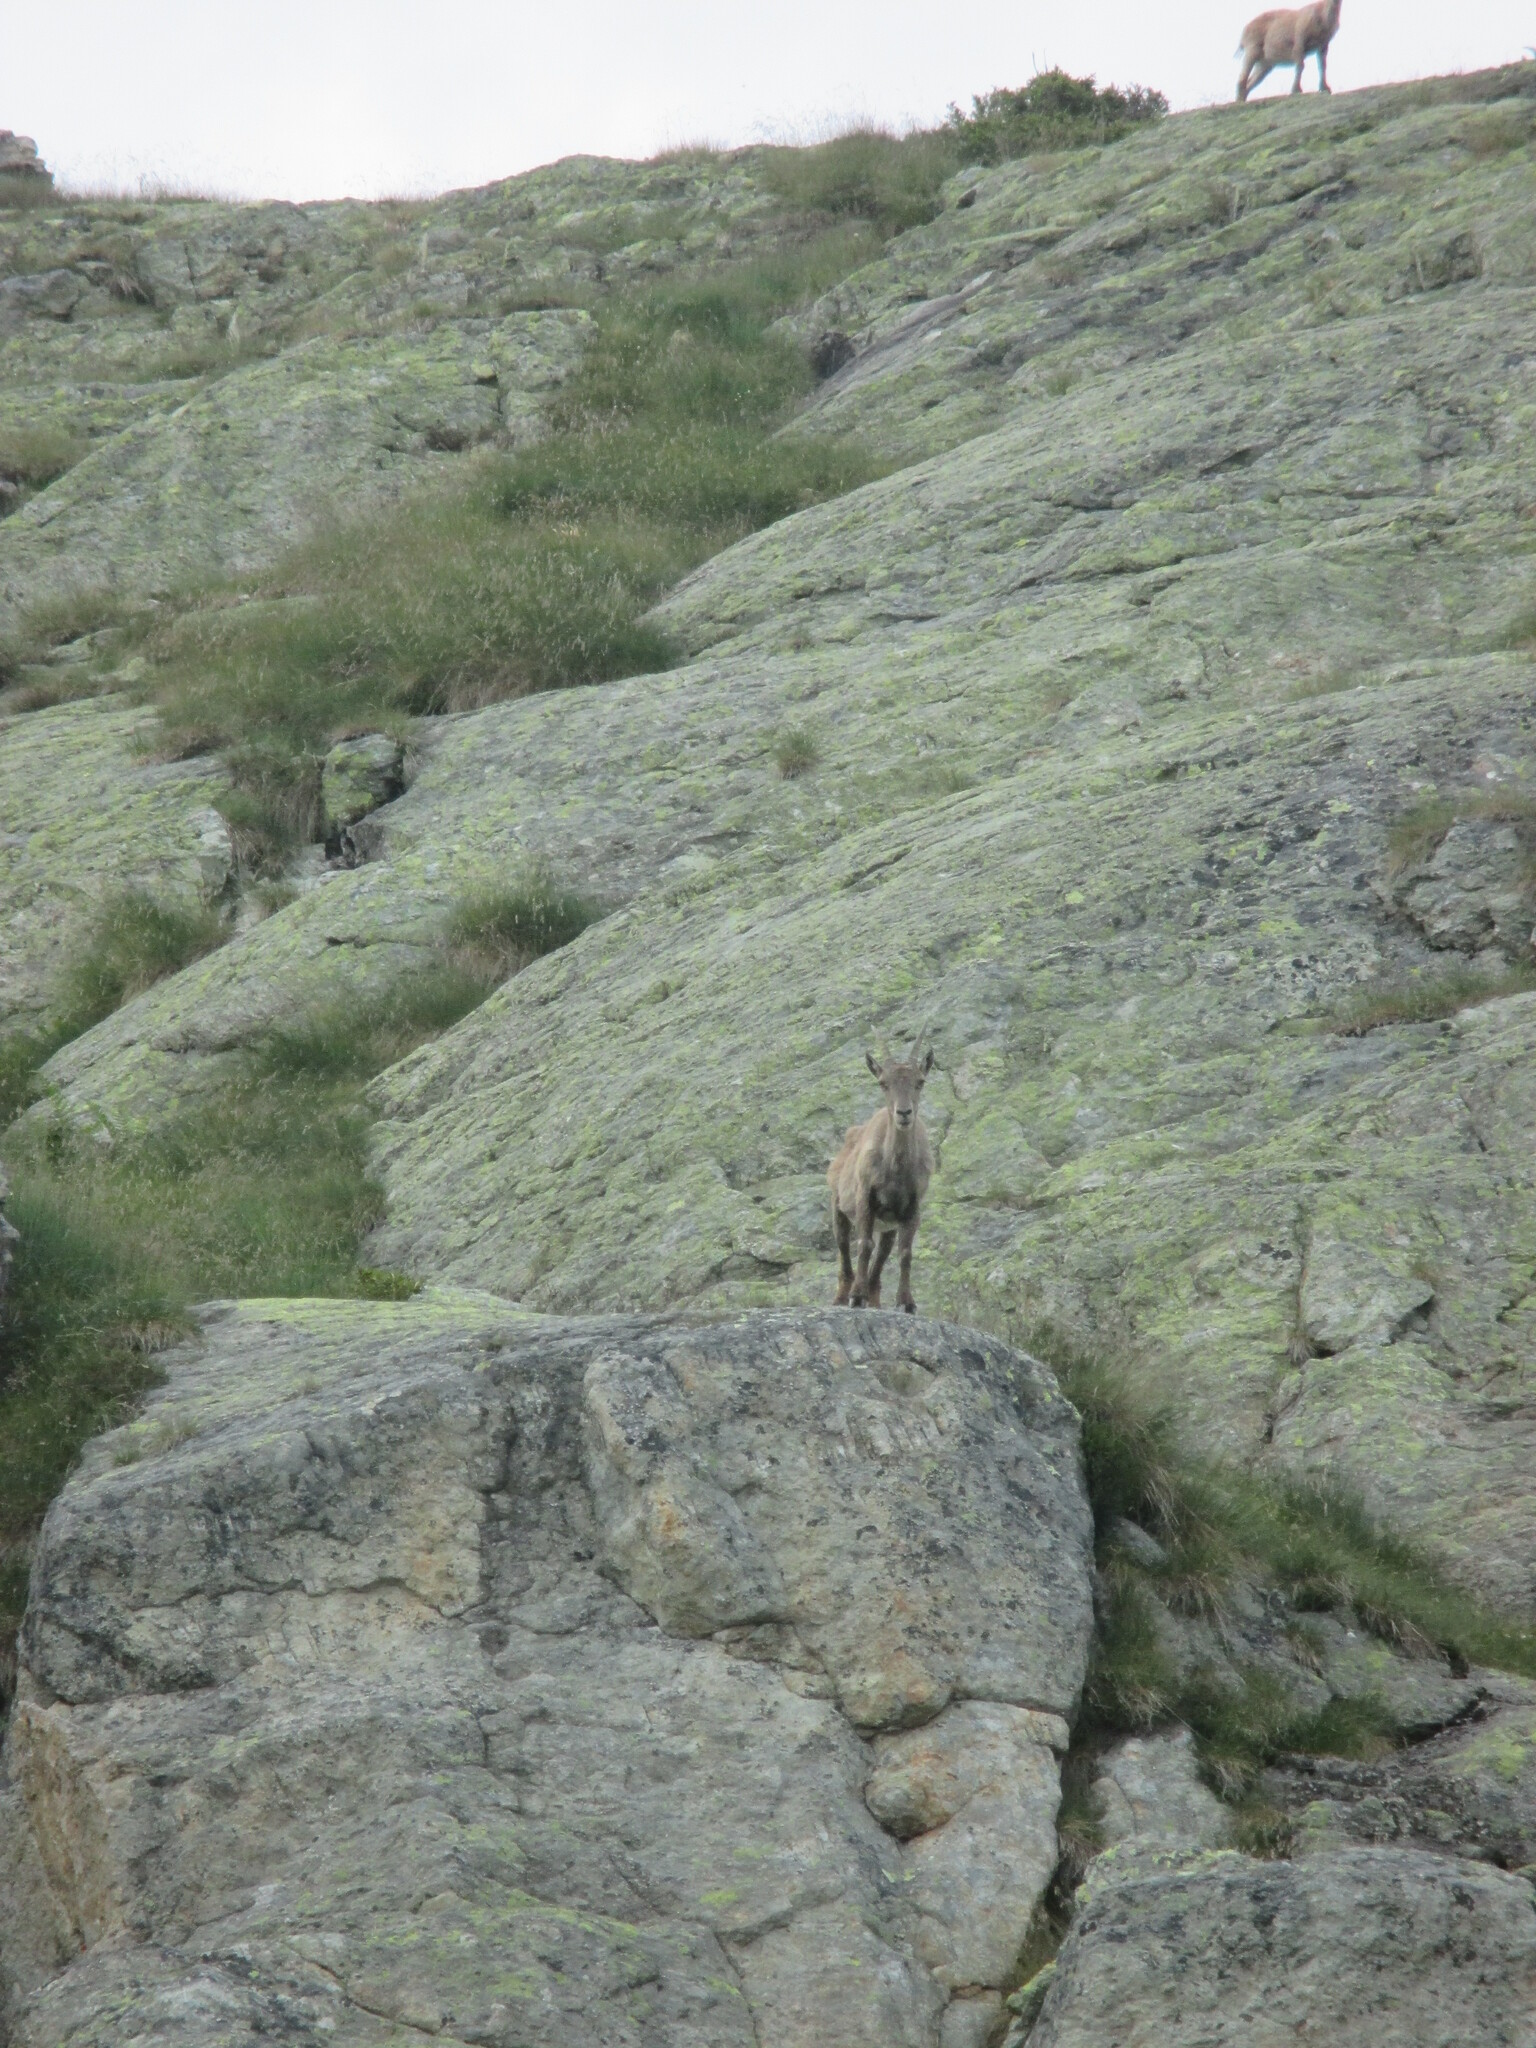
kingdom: Animalia
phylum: Chordata
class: Mammalia
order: Artiodactyla
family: Bovidae
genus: Capra
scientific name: Capra ibex
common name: Alpine ibex
